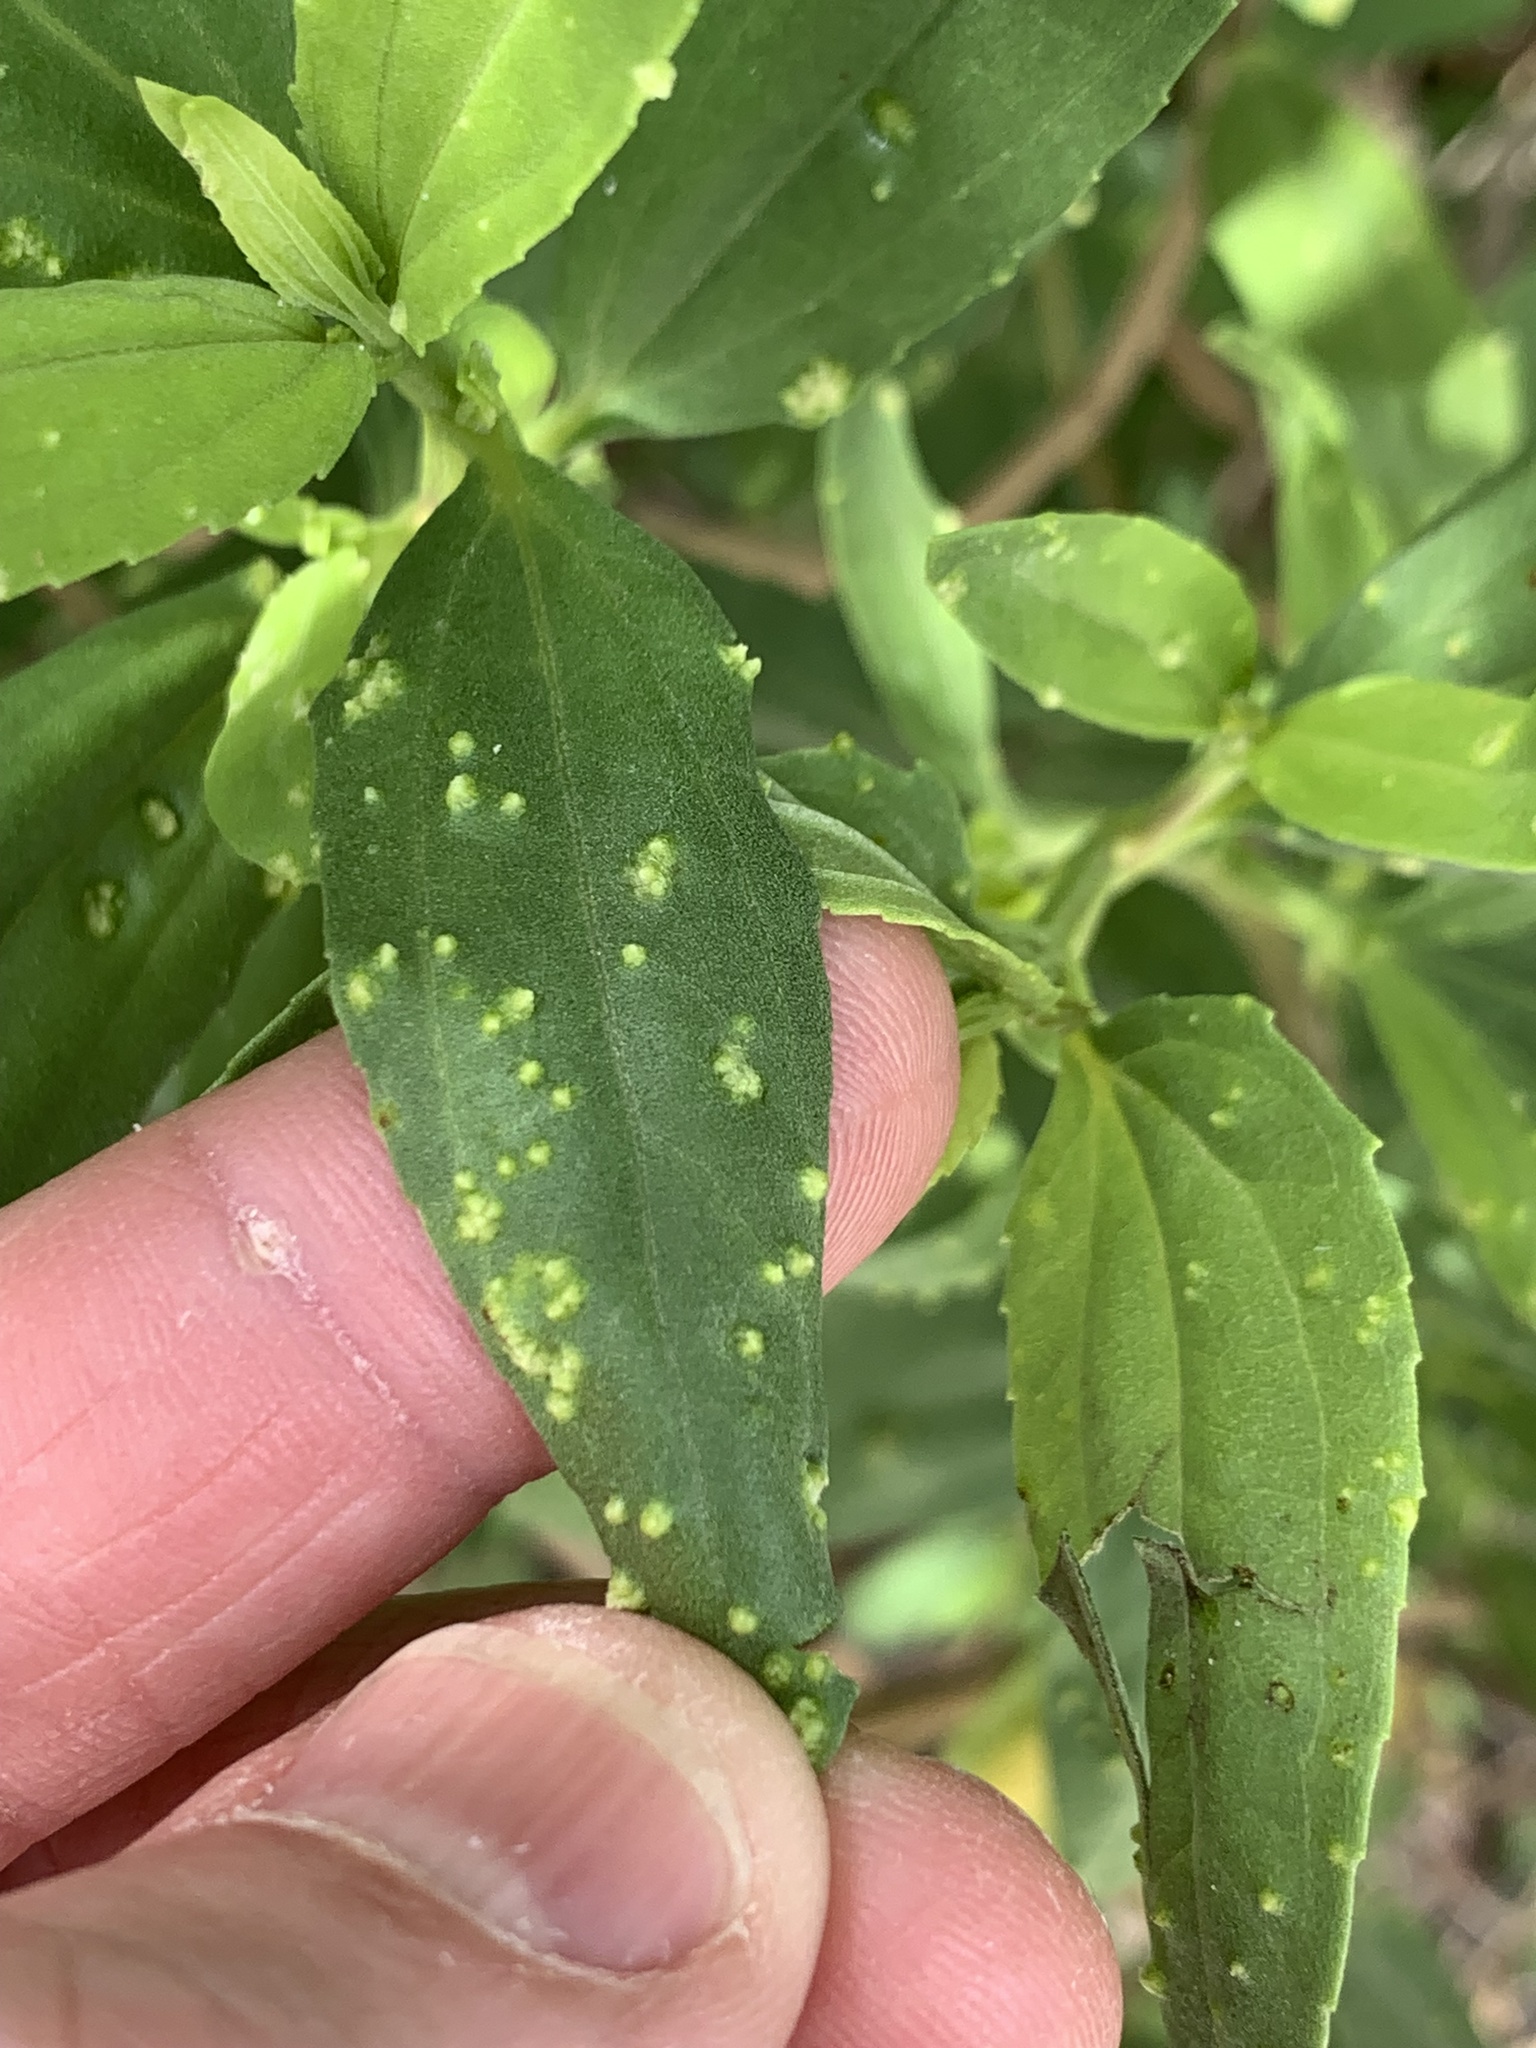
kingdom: Plantae
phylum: Tracheophyta
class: Magnoliopsida
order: Asterales
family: Asteraceae
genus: Iva
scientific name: Iva frutescens
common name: Big-leaved marsh-elder
